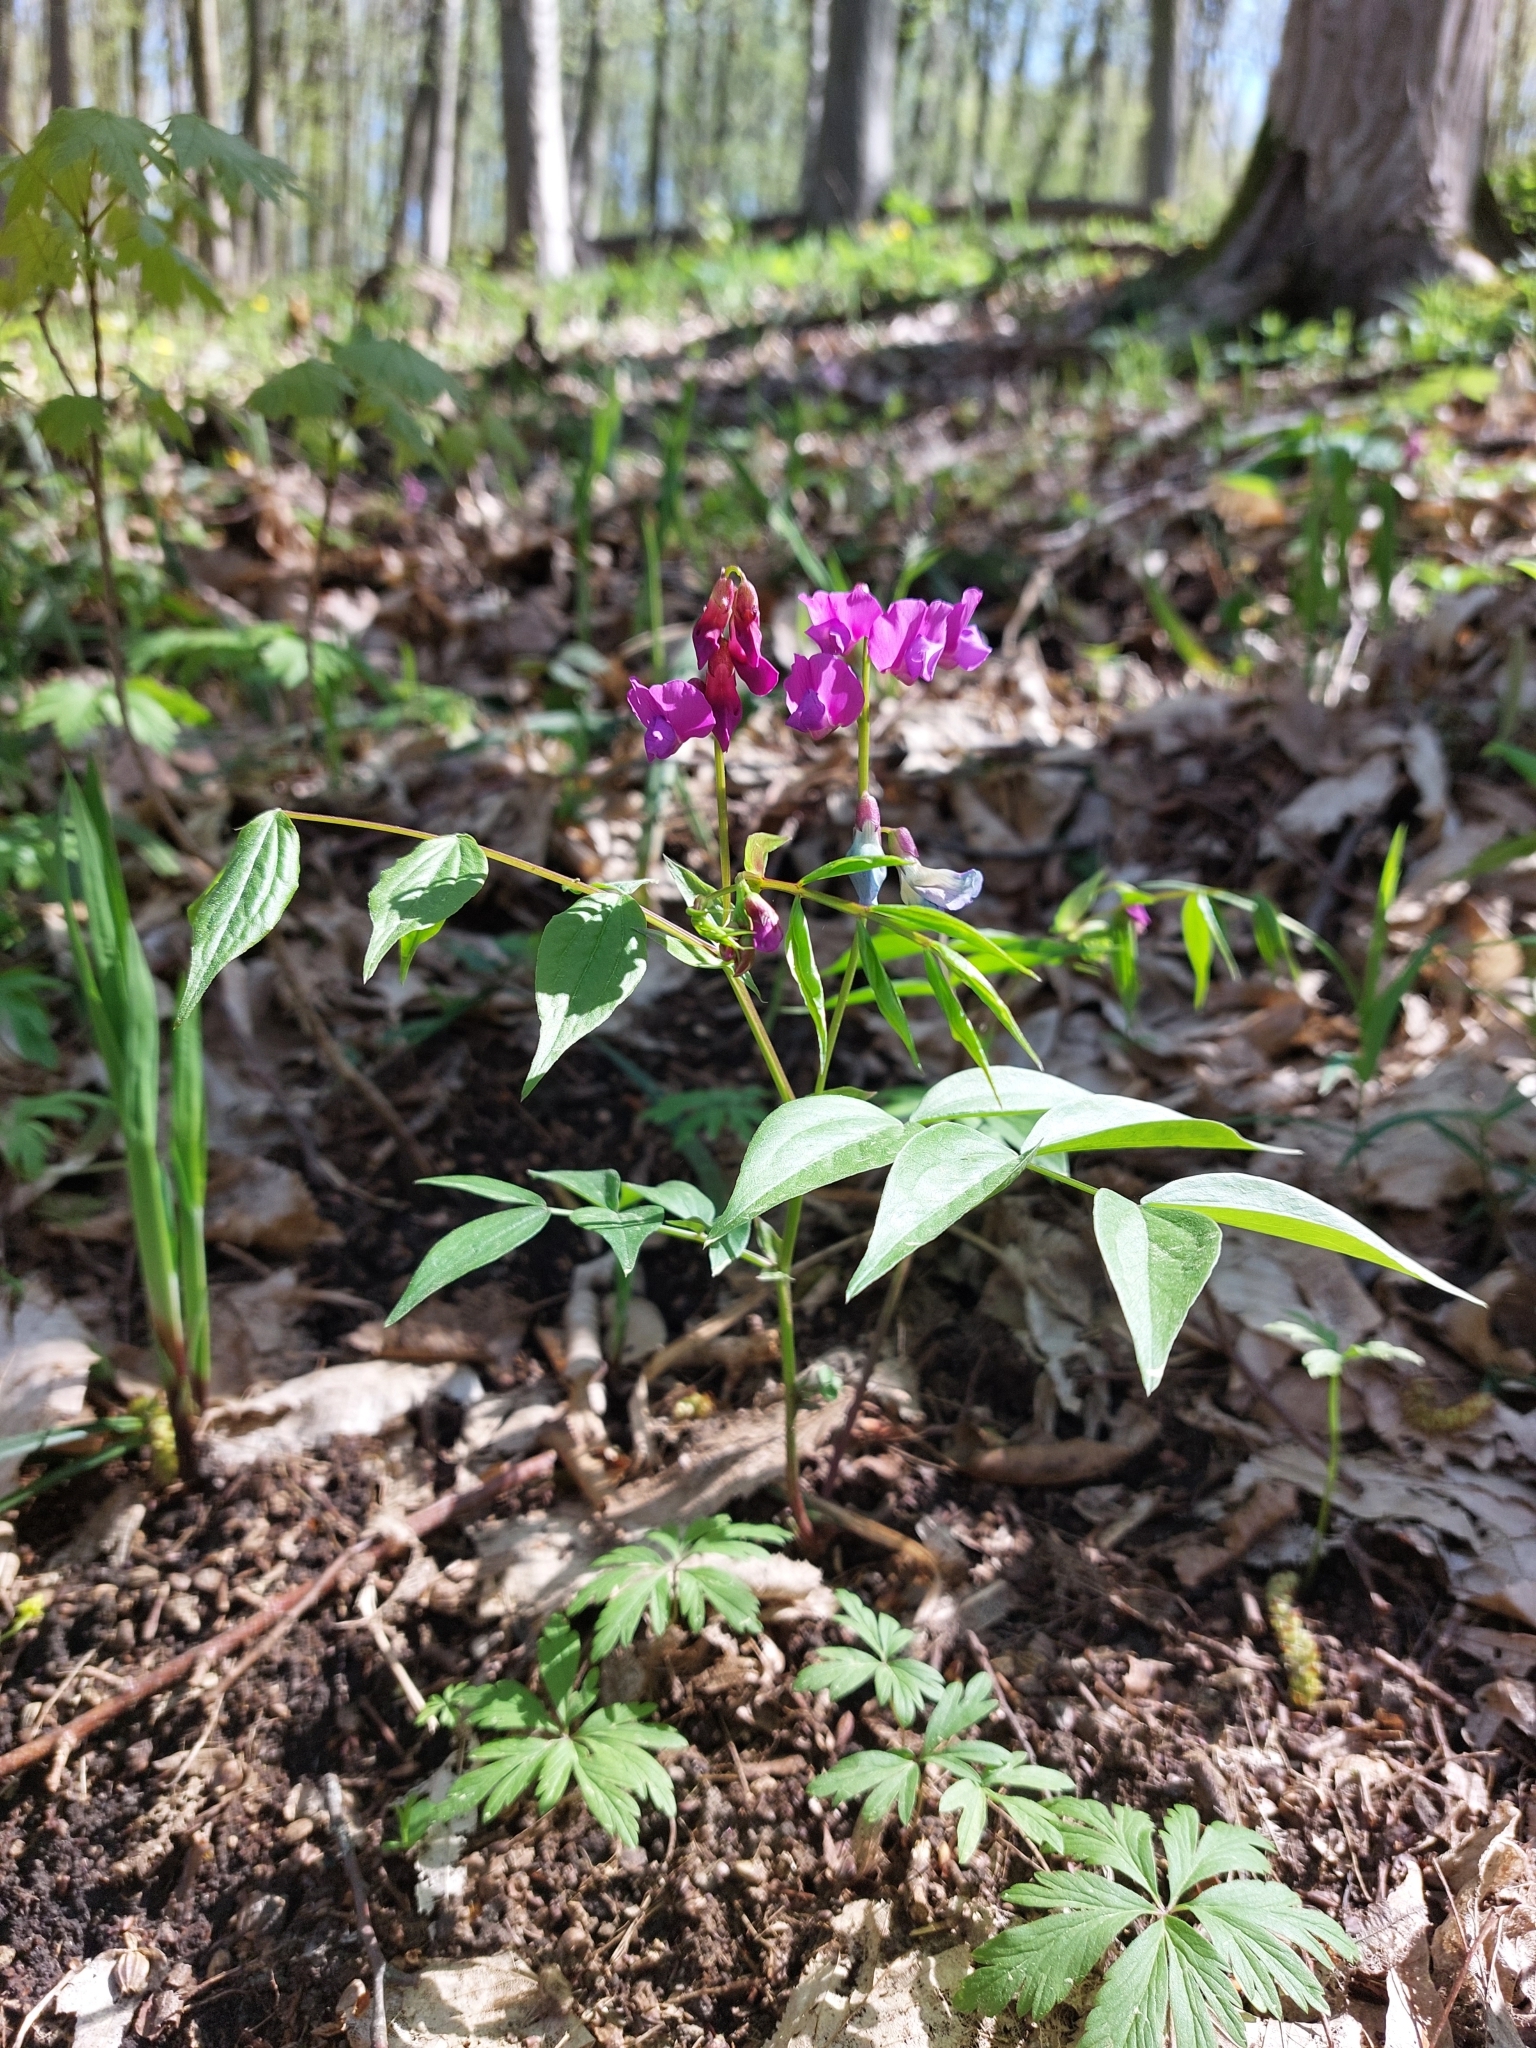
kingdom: Plantae
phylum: Tracheophyta
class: Magnoliopsida
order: Fabales
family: Fabaceae
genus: Lathyrus
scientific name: Lathyrus vernus
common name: Spring pea
